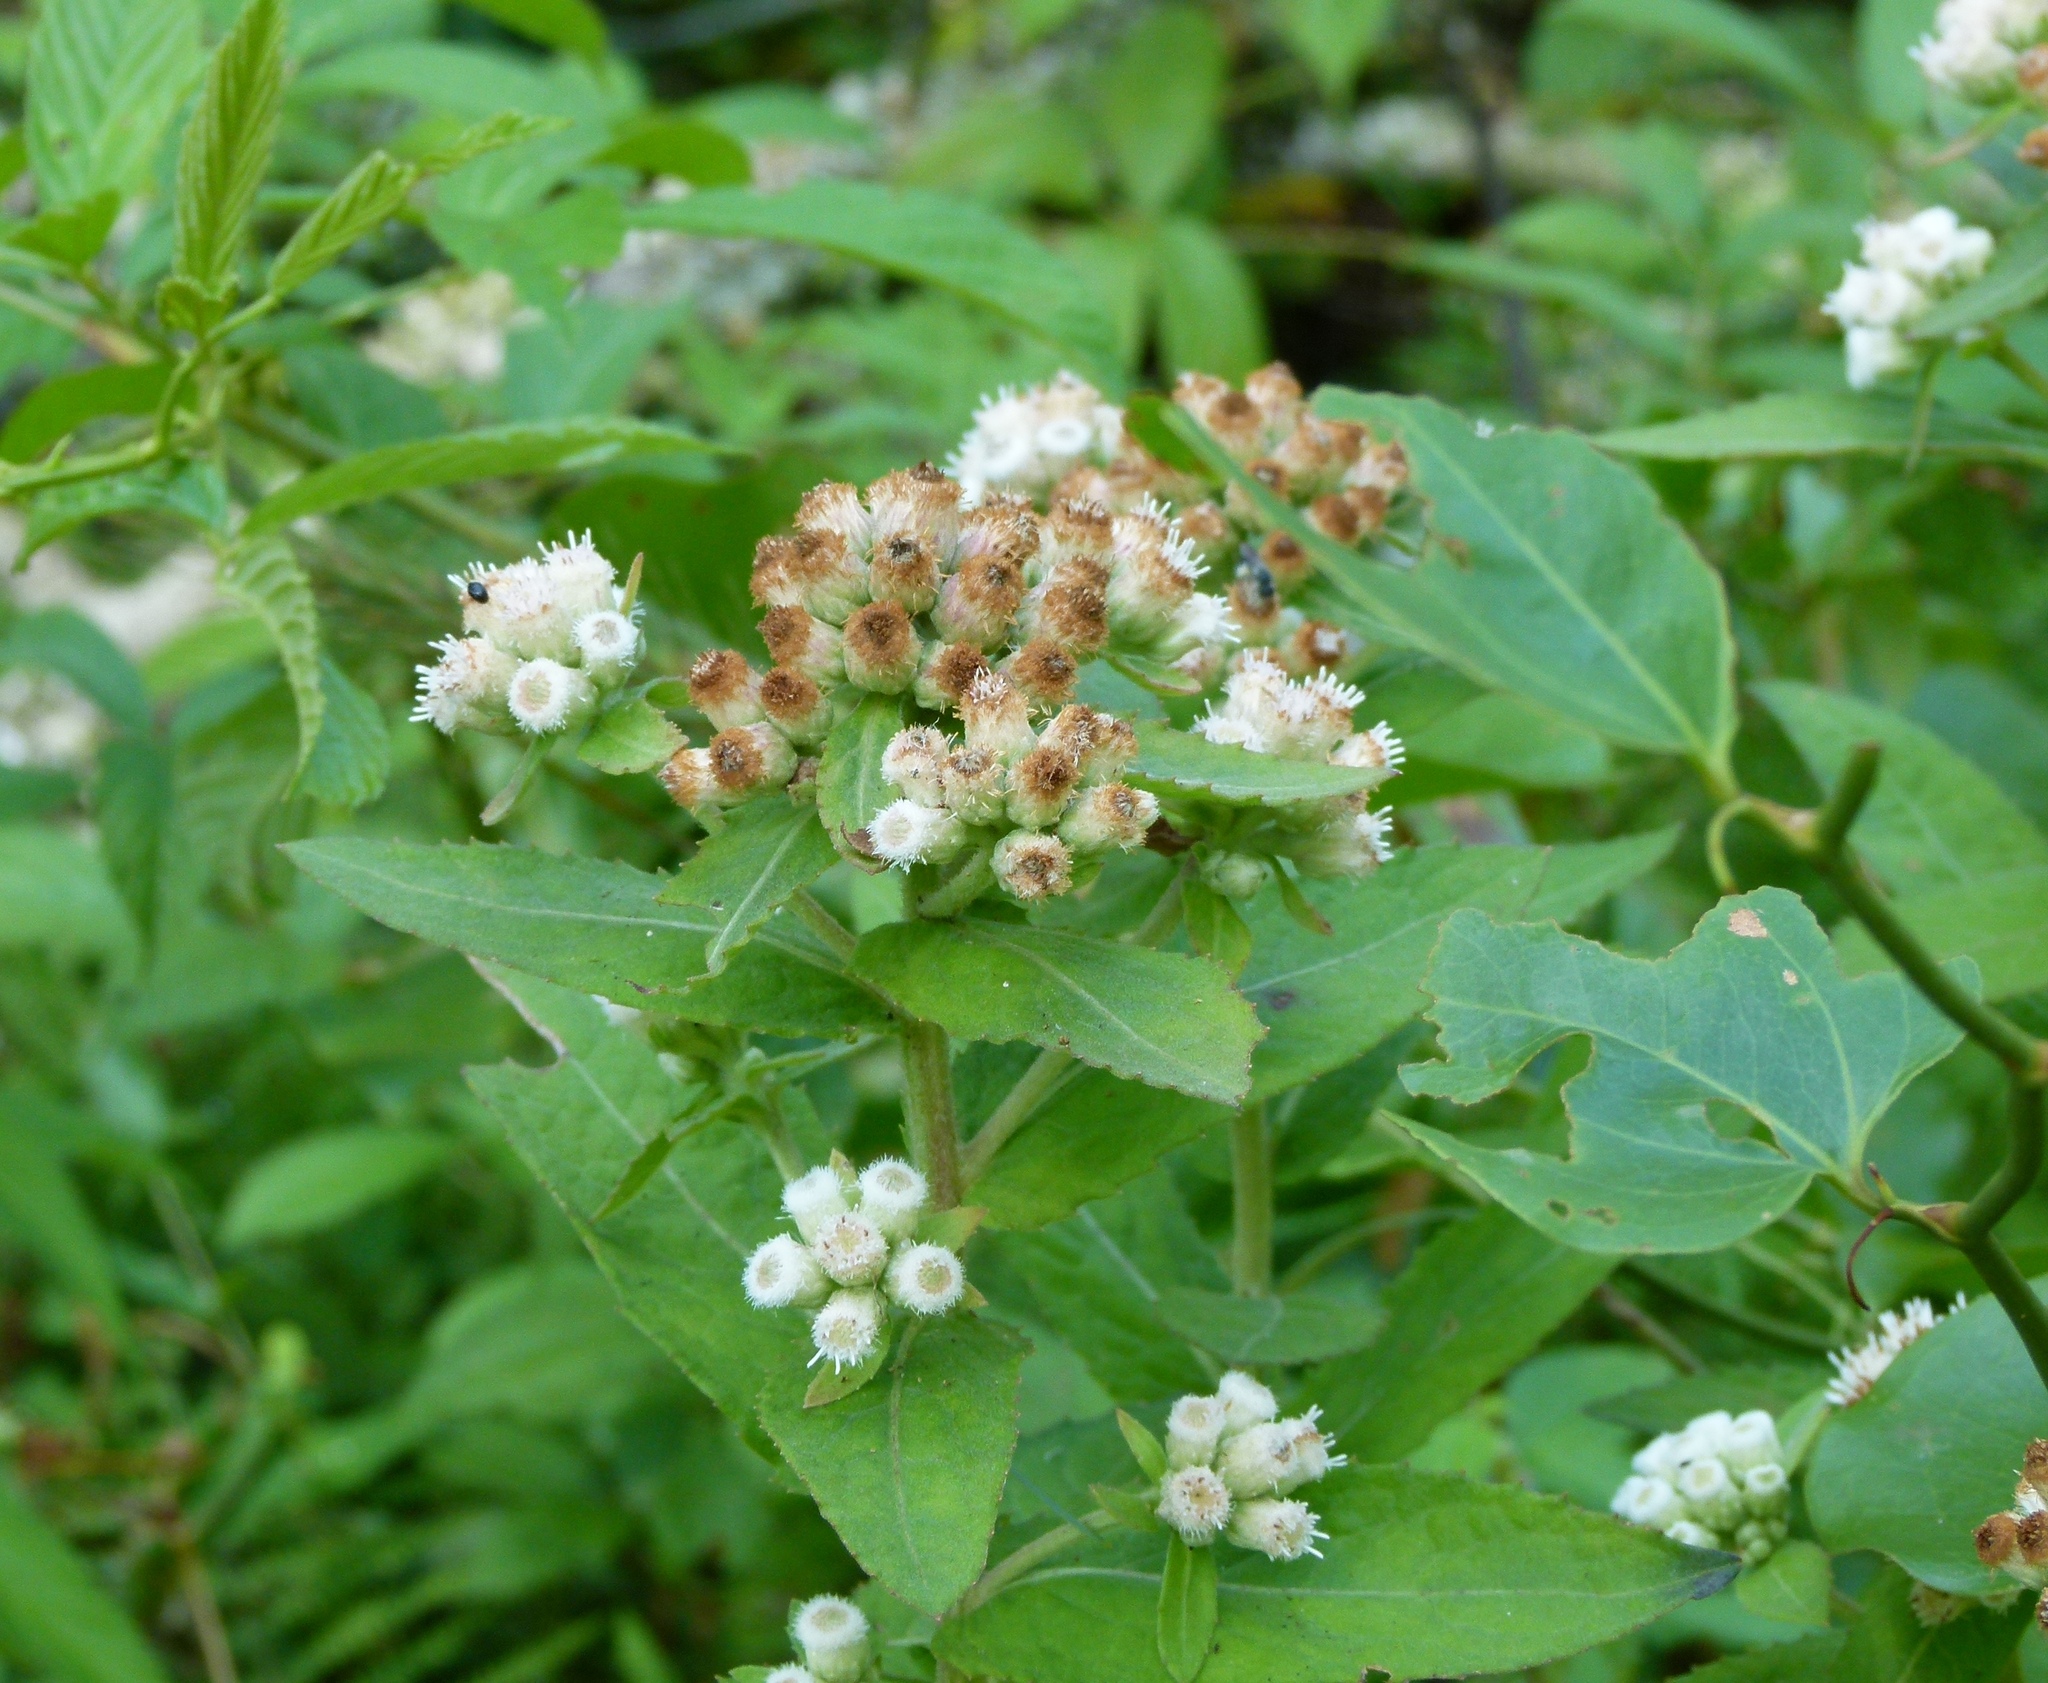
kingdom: Plantae
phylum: Tracheophyta
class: Magnoliopsida
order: Asterales
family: Asteraceae
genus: Pluchea
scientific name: Pluchea foetida
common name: Stinking camphorweed
